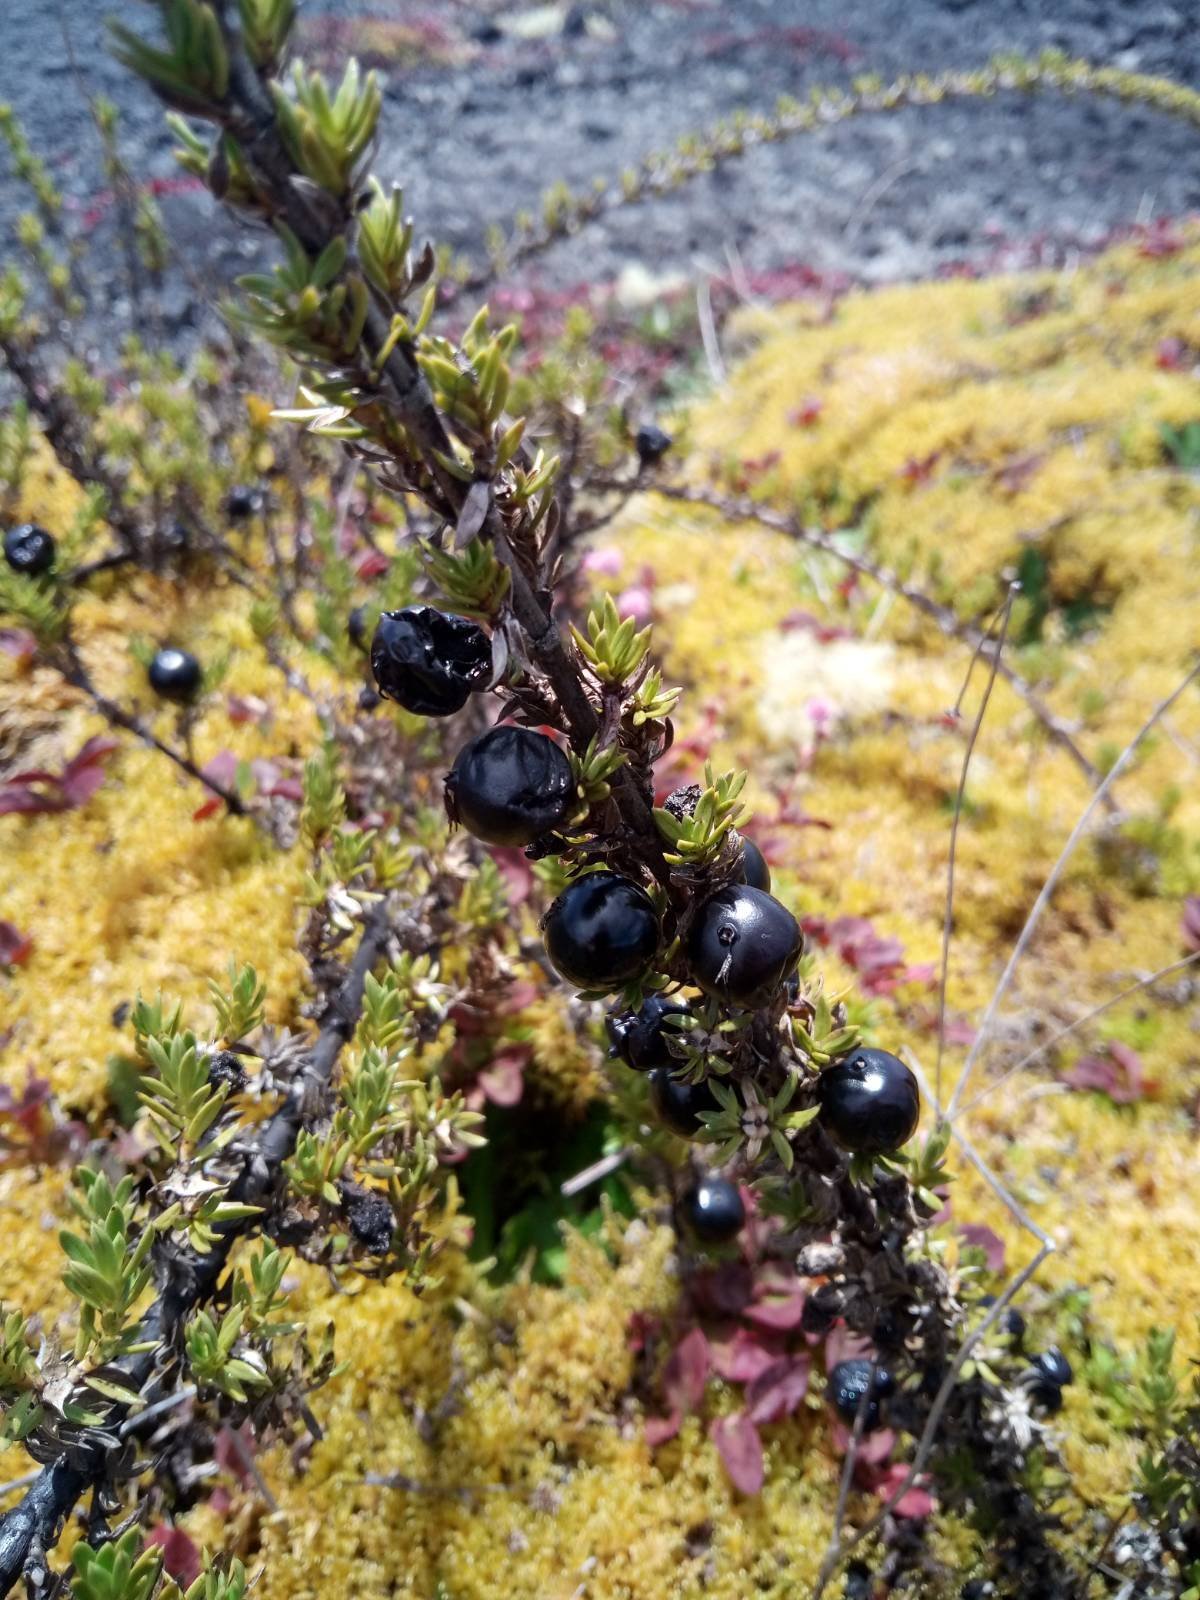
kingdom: Plantae
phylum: Tracheophyta
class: Magnoliopsida
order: Gentianales
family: Rubiaceae
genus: Coprosma
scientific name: Coprosma ernodeoides
